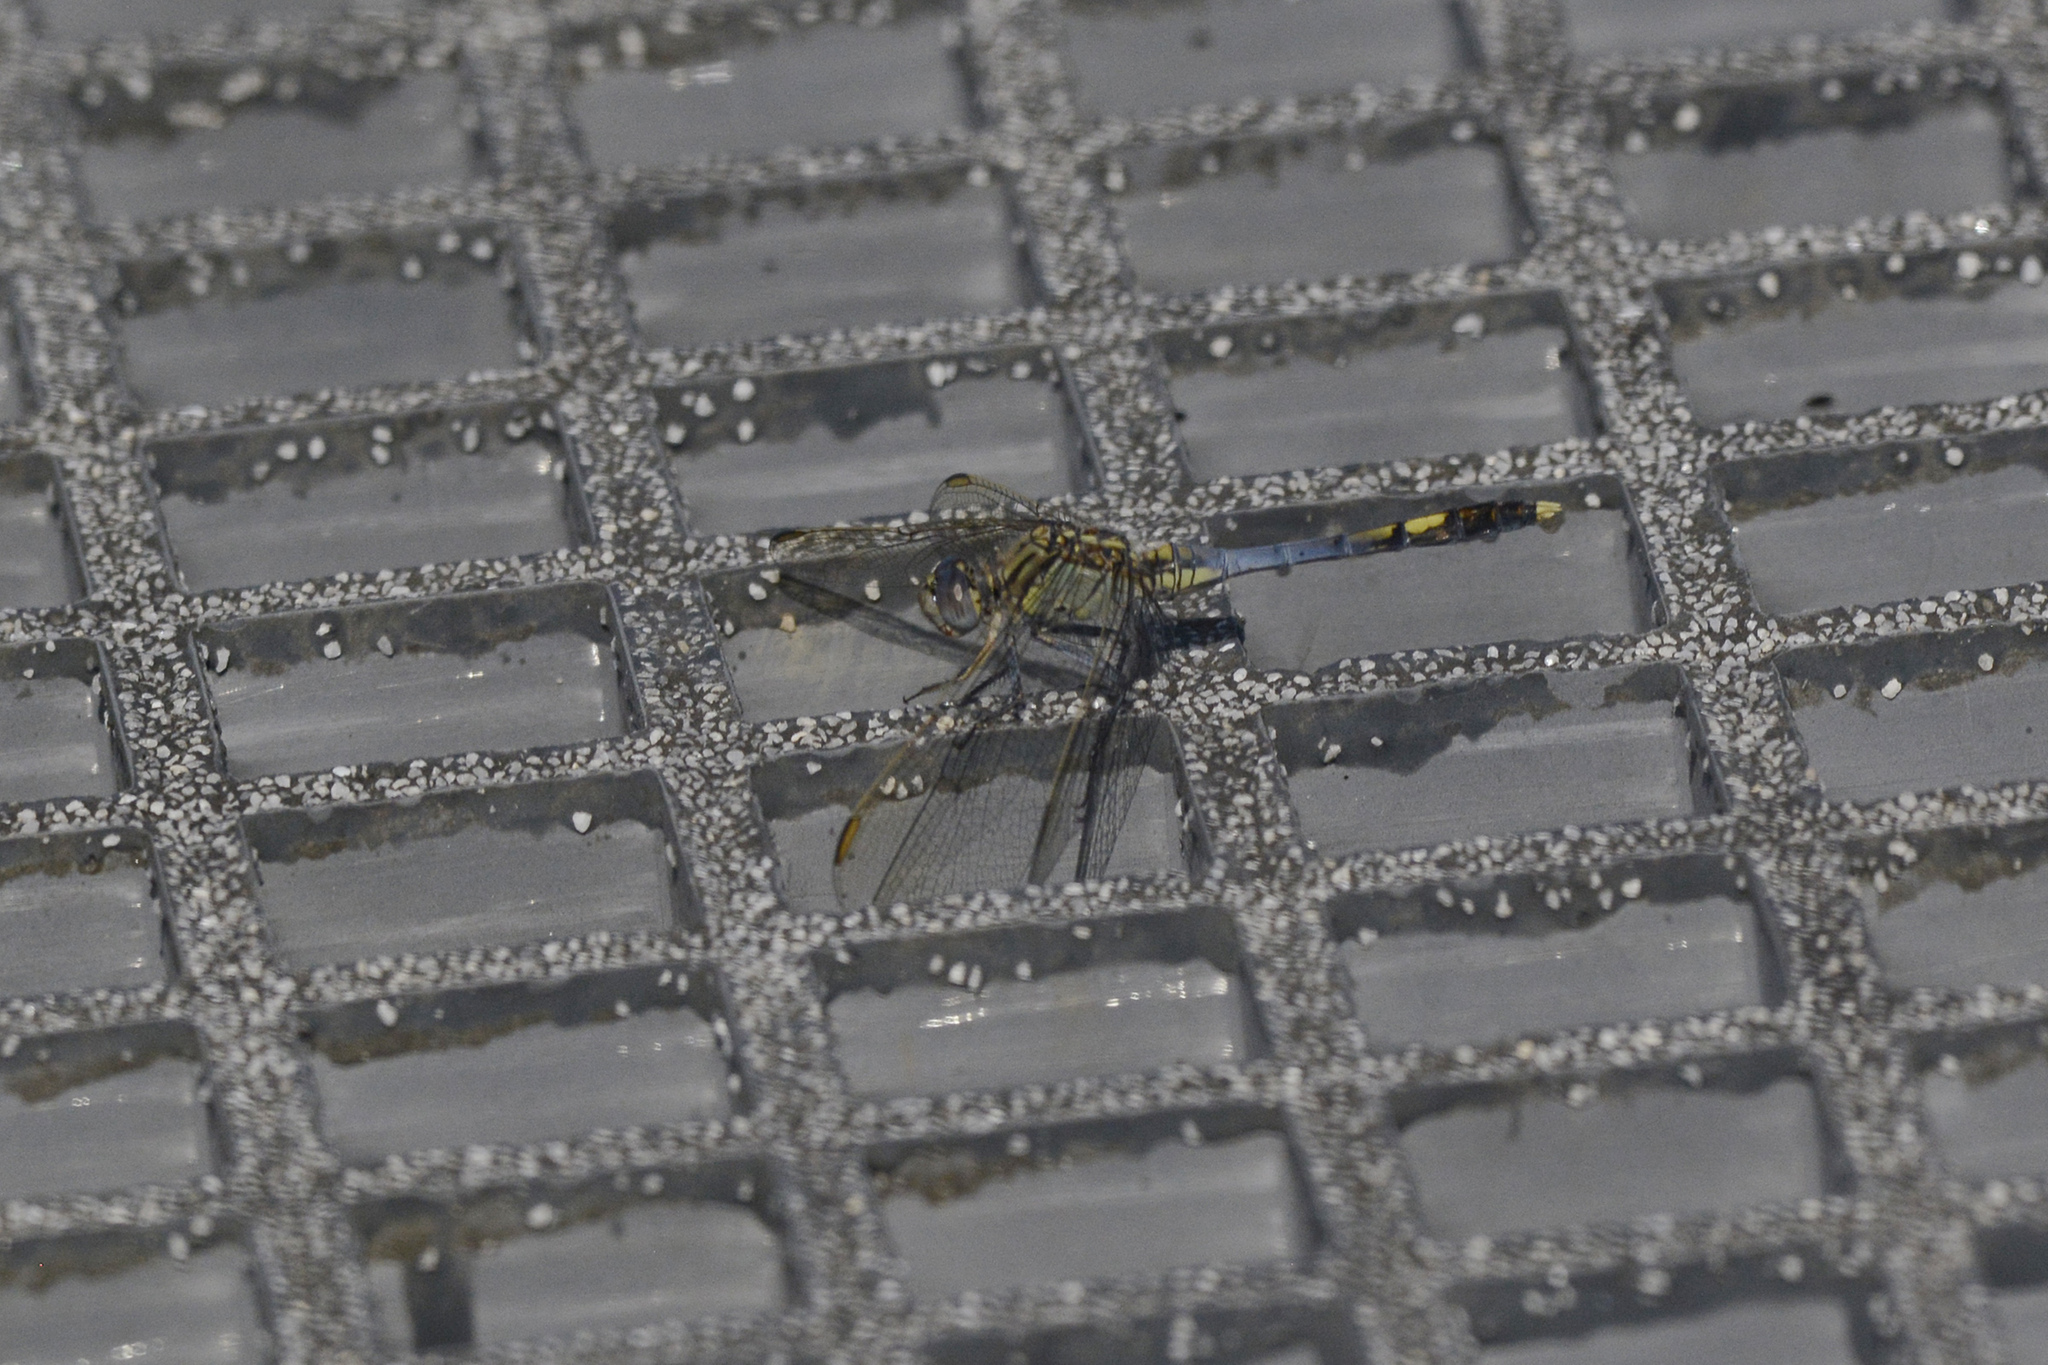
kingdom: Animalia
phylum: Arthropoda
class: Insecta
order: Odonata
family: Libellulidae
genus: Orthetrum
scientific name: Orthetrum caledonicum
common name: Blue skimmer
